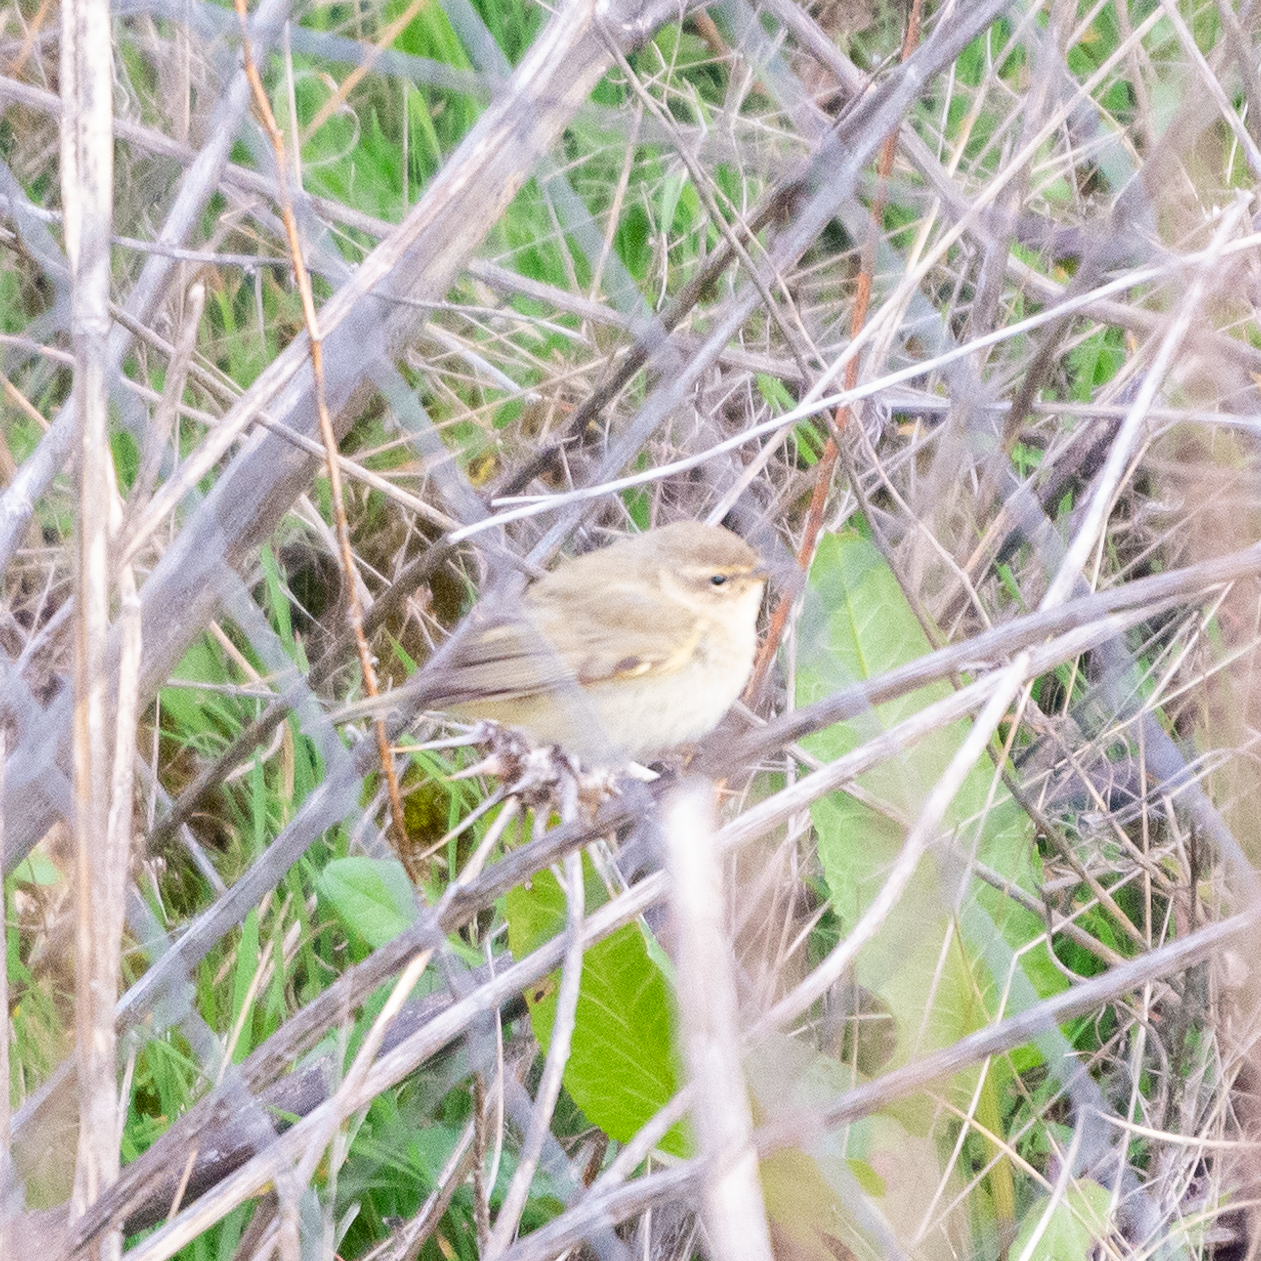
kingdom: Animalia
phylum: Chordata
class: Aves
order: Passeriformes
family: Phylloscopidae
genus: Phylloscopus
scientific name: Phylloscopus collybita
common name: Common chiffchaff
